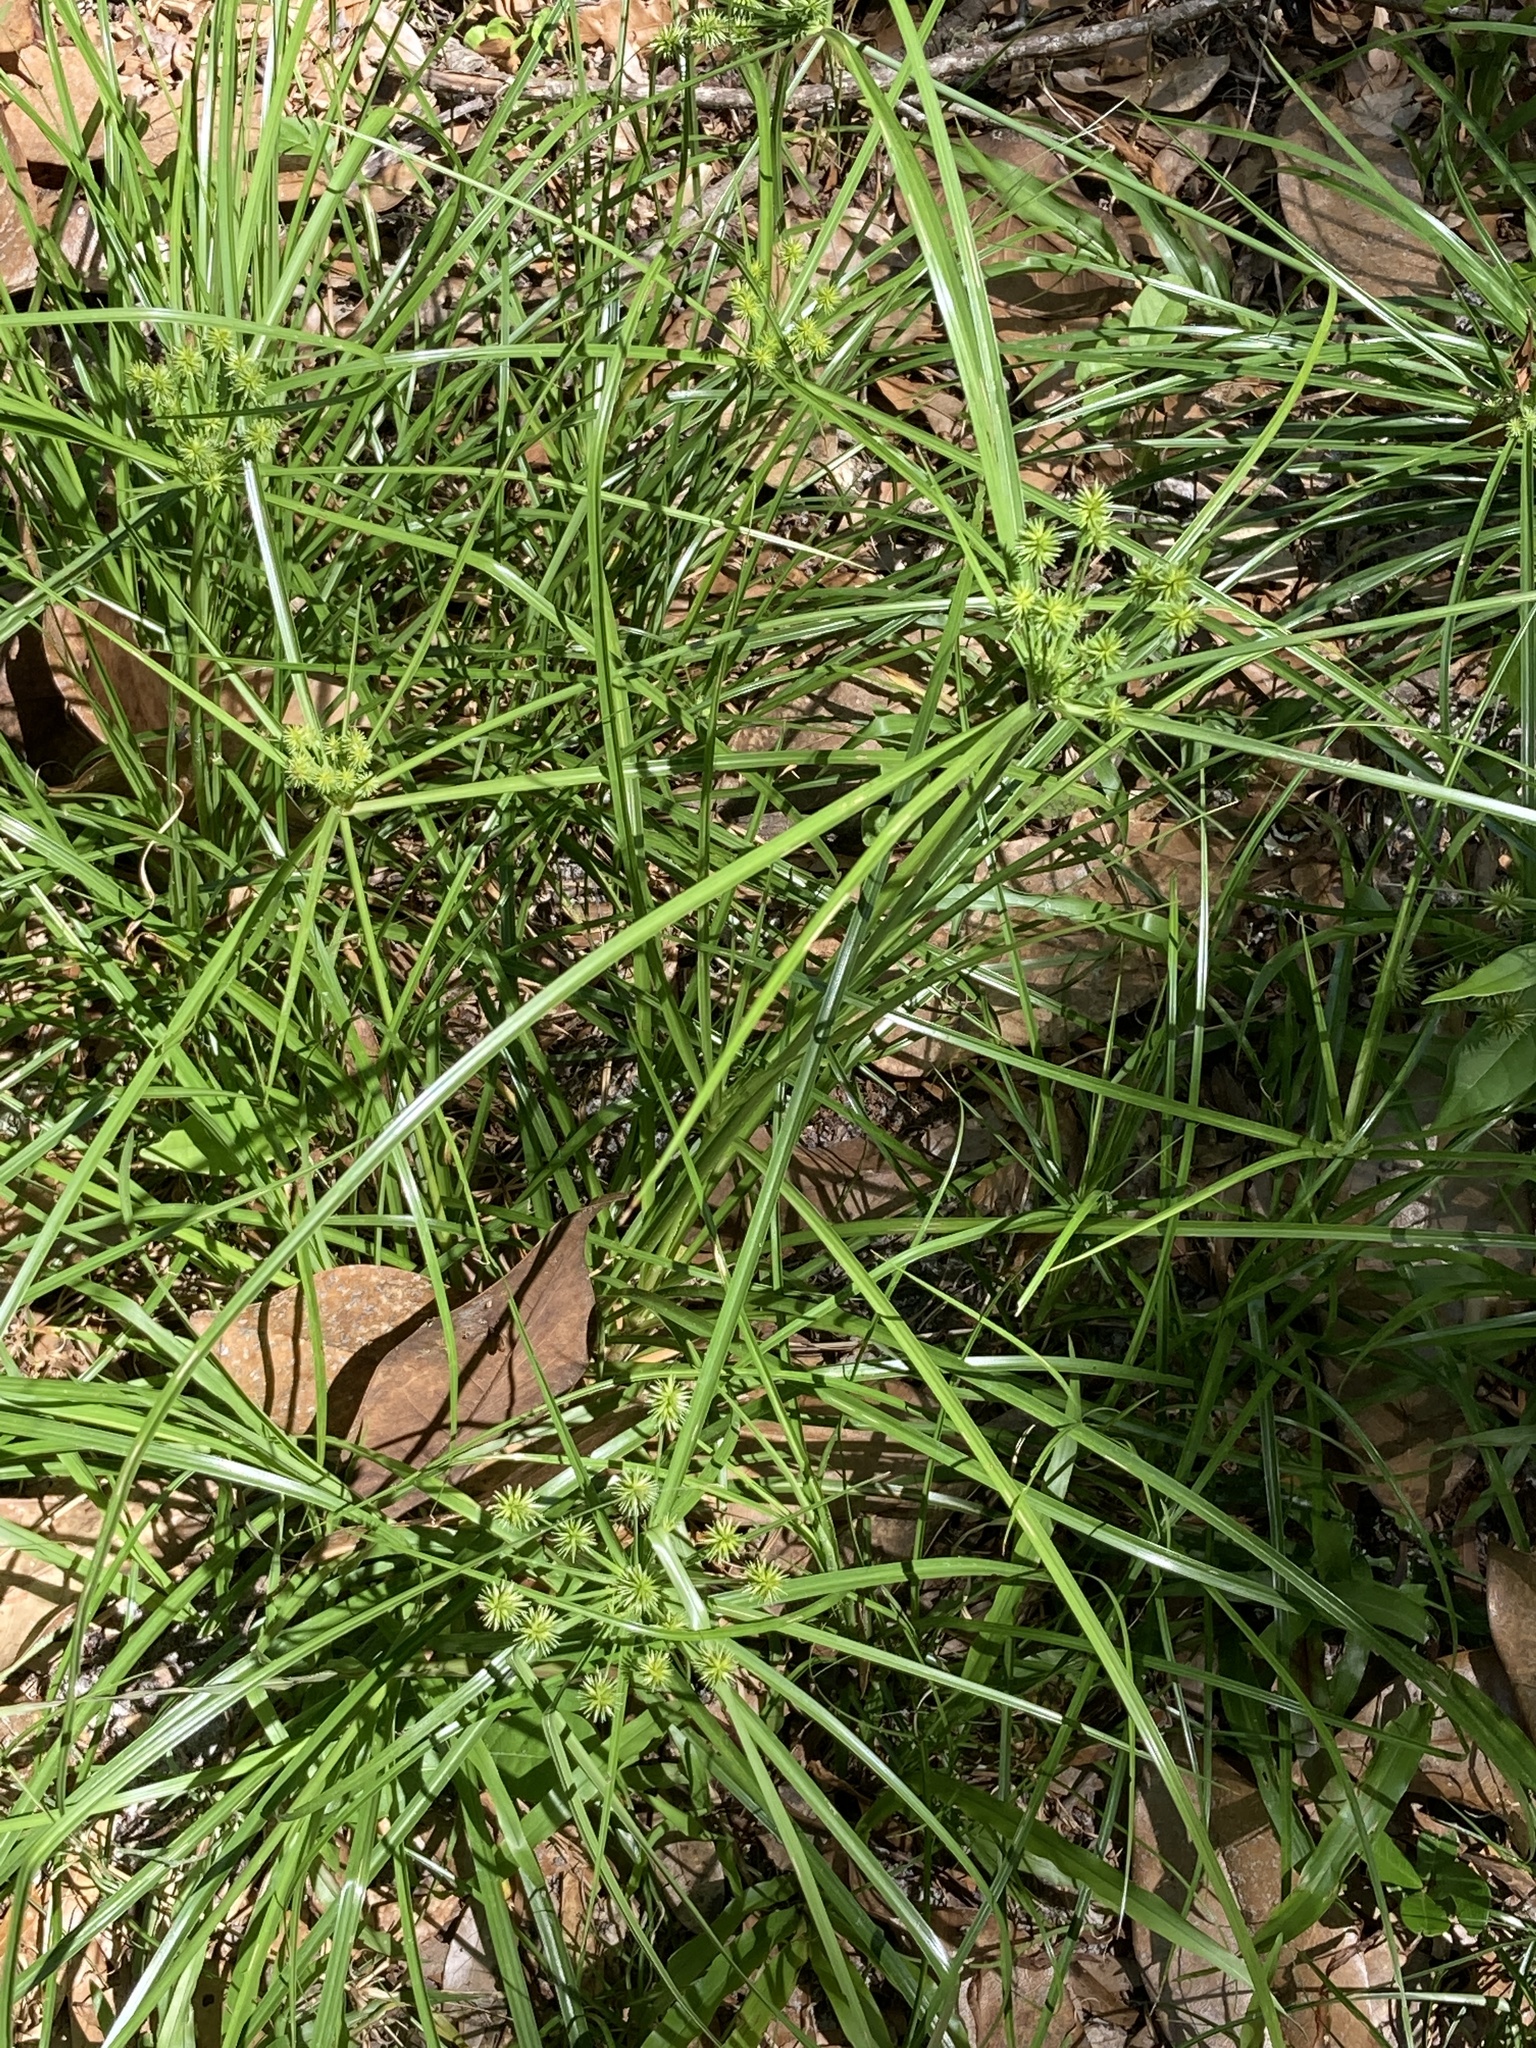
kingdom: Plantae
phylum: Tracheophyta
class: Liliopsida
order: Poales
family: Cyperaceae
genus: Cyperus
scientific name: Cyperus croceus
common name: Baldwin's flatsedge
